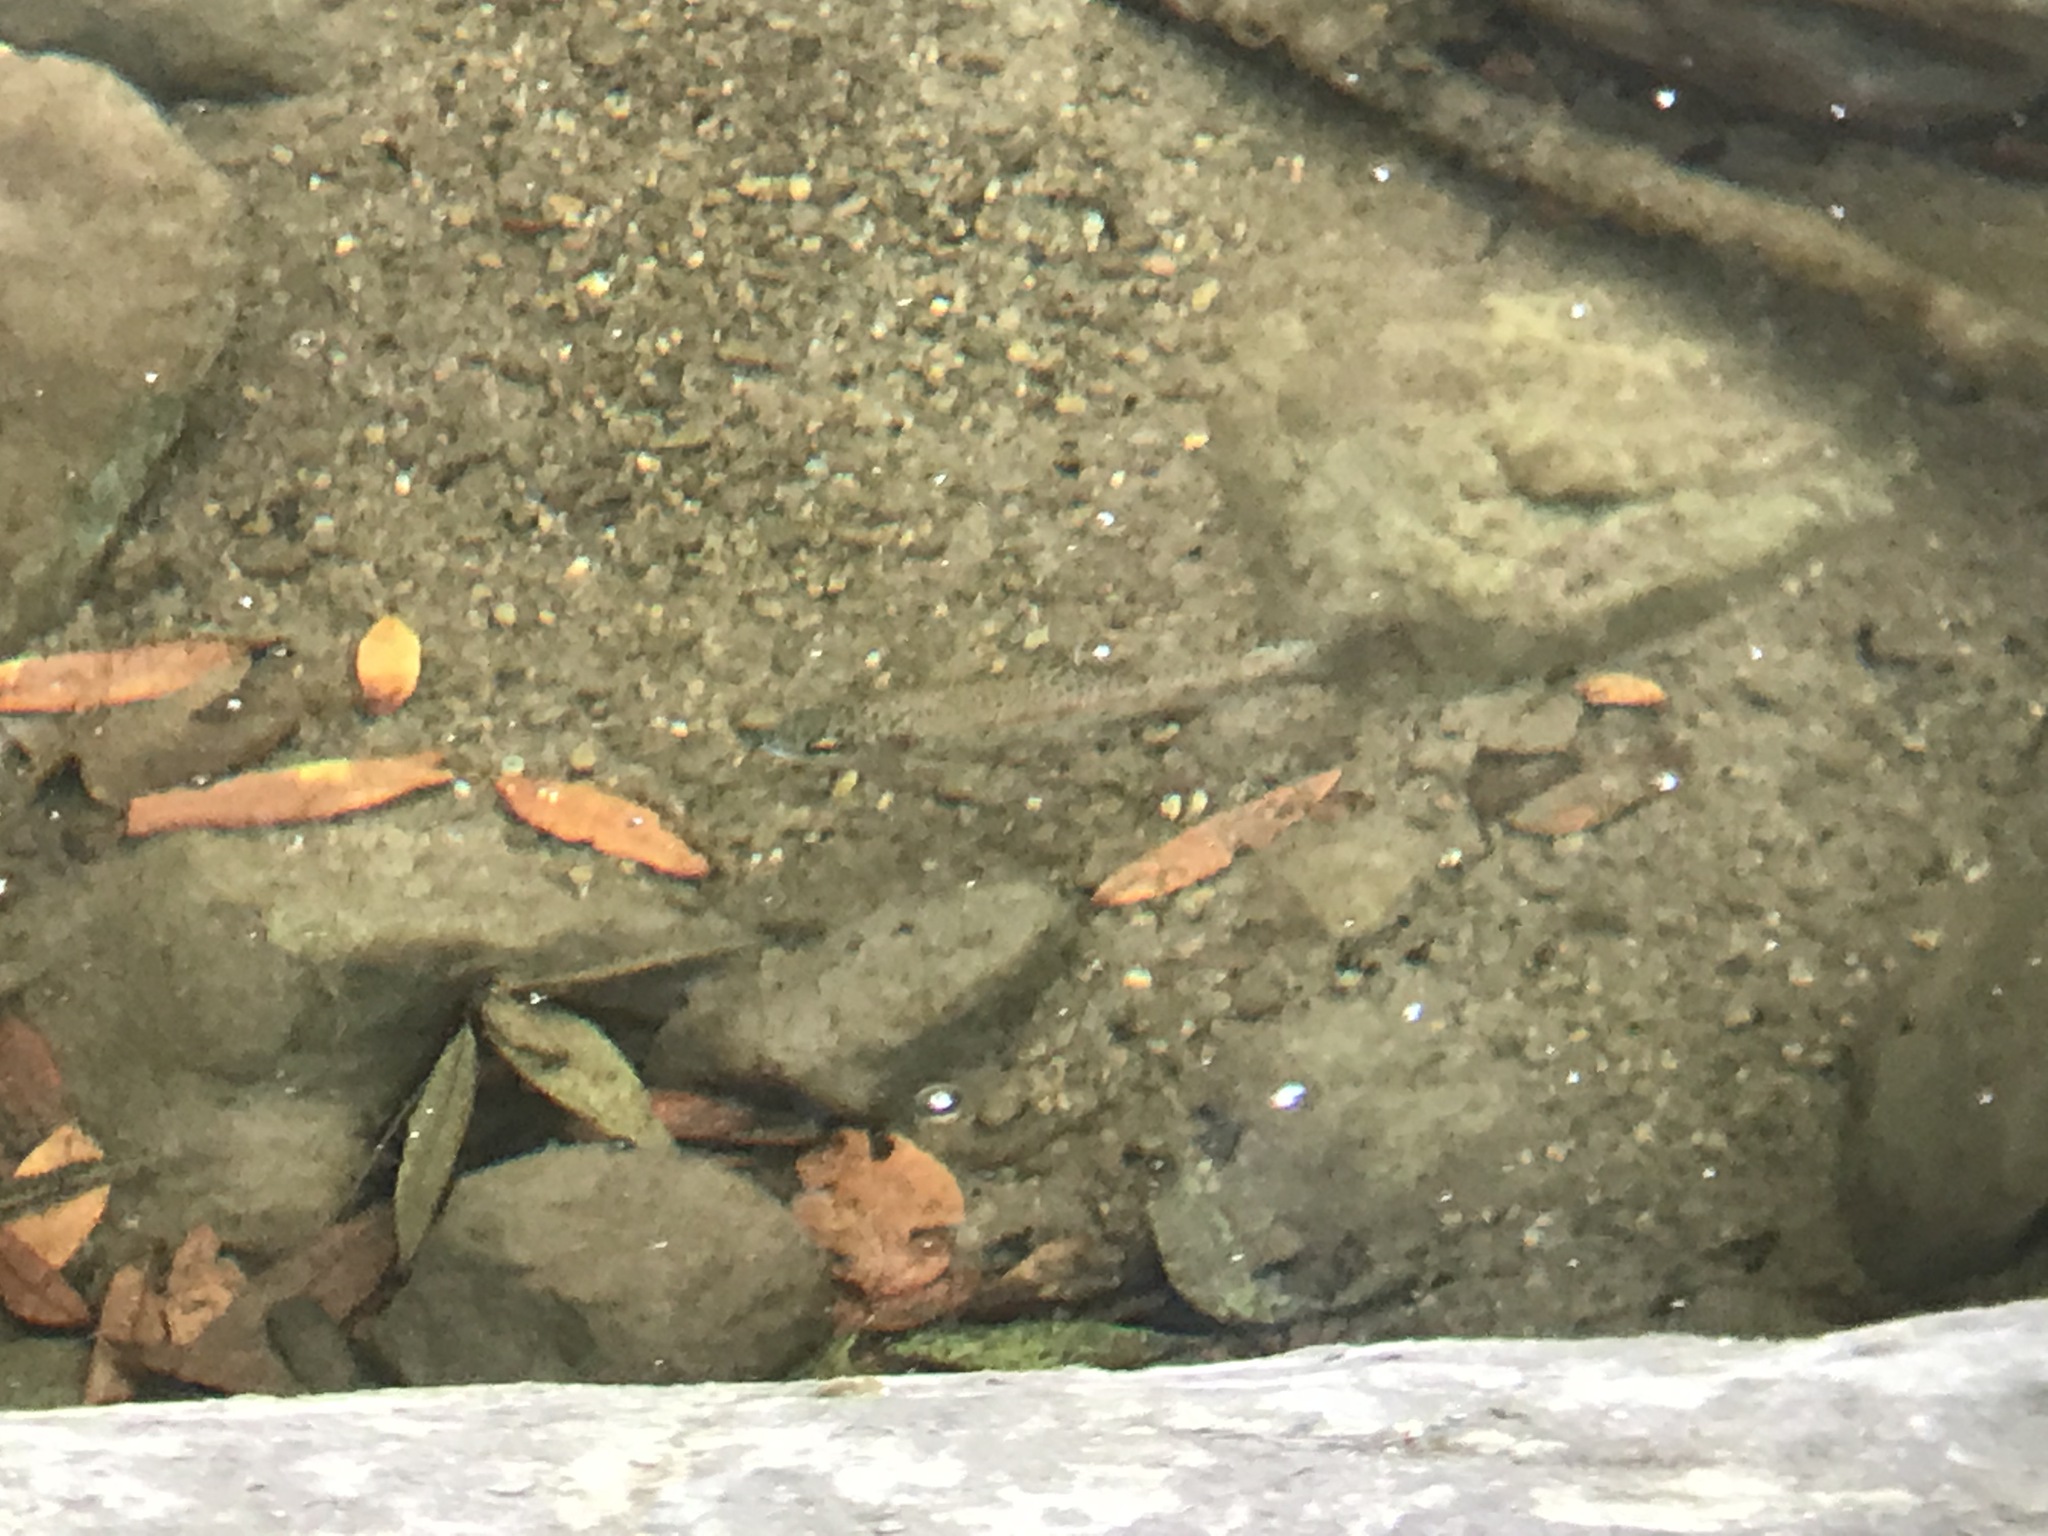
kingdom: Animalia
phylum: Chordata
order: Salmoniformes
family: Salmonidae
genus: Oncorhynchus
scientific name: Oncorhynchus mykiss
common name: Rainbow trout
